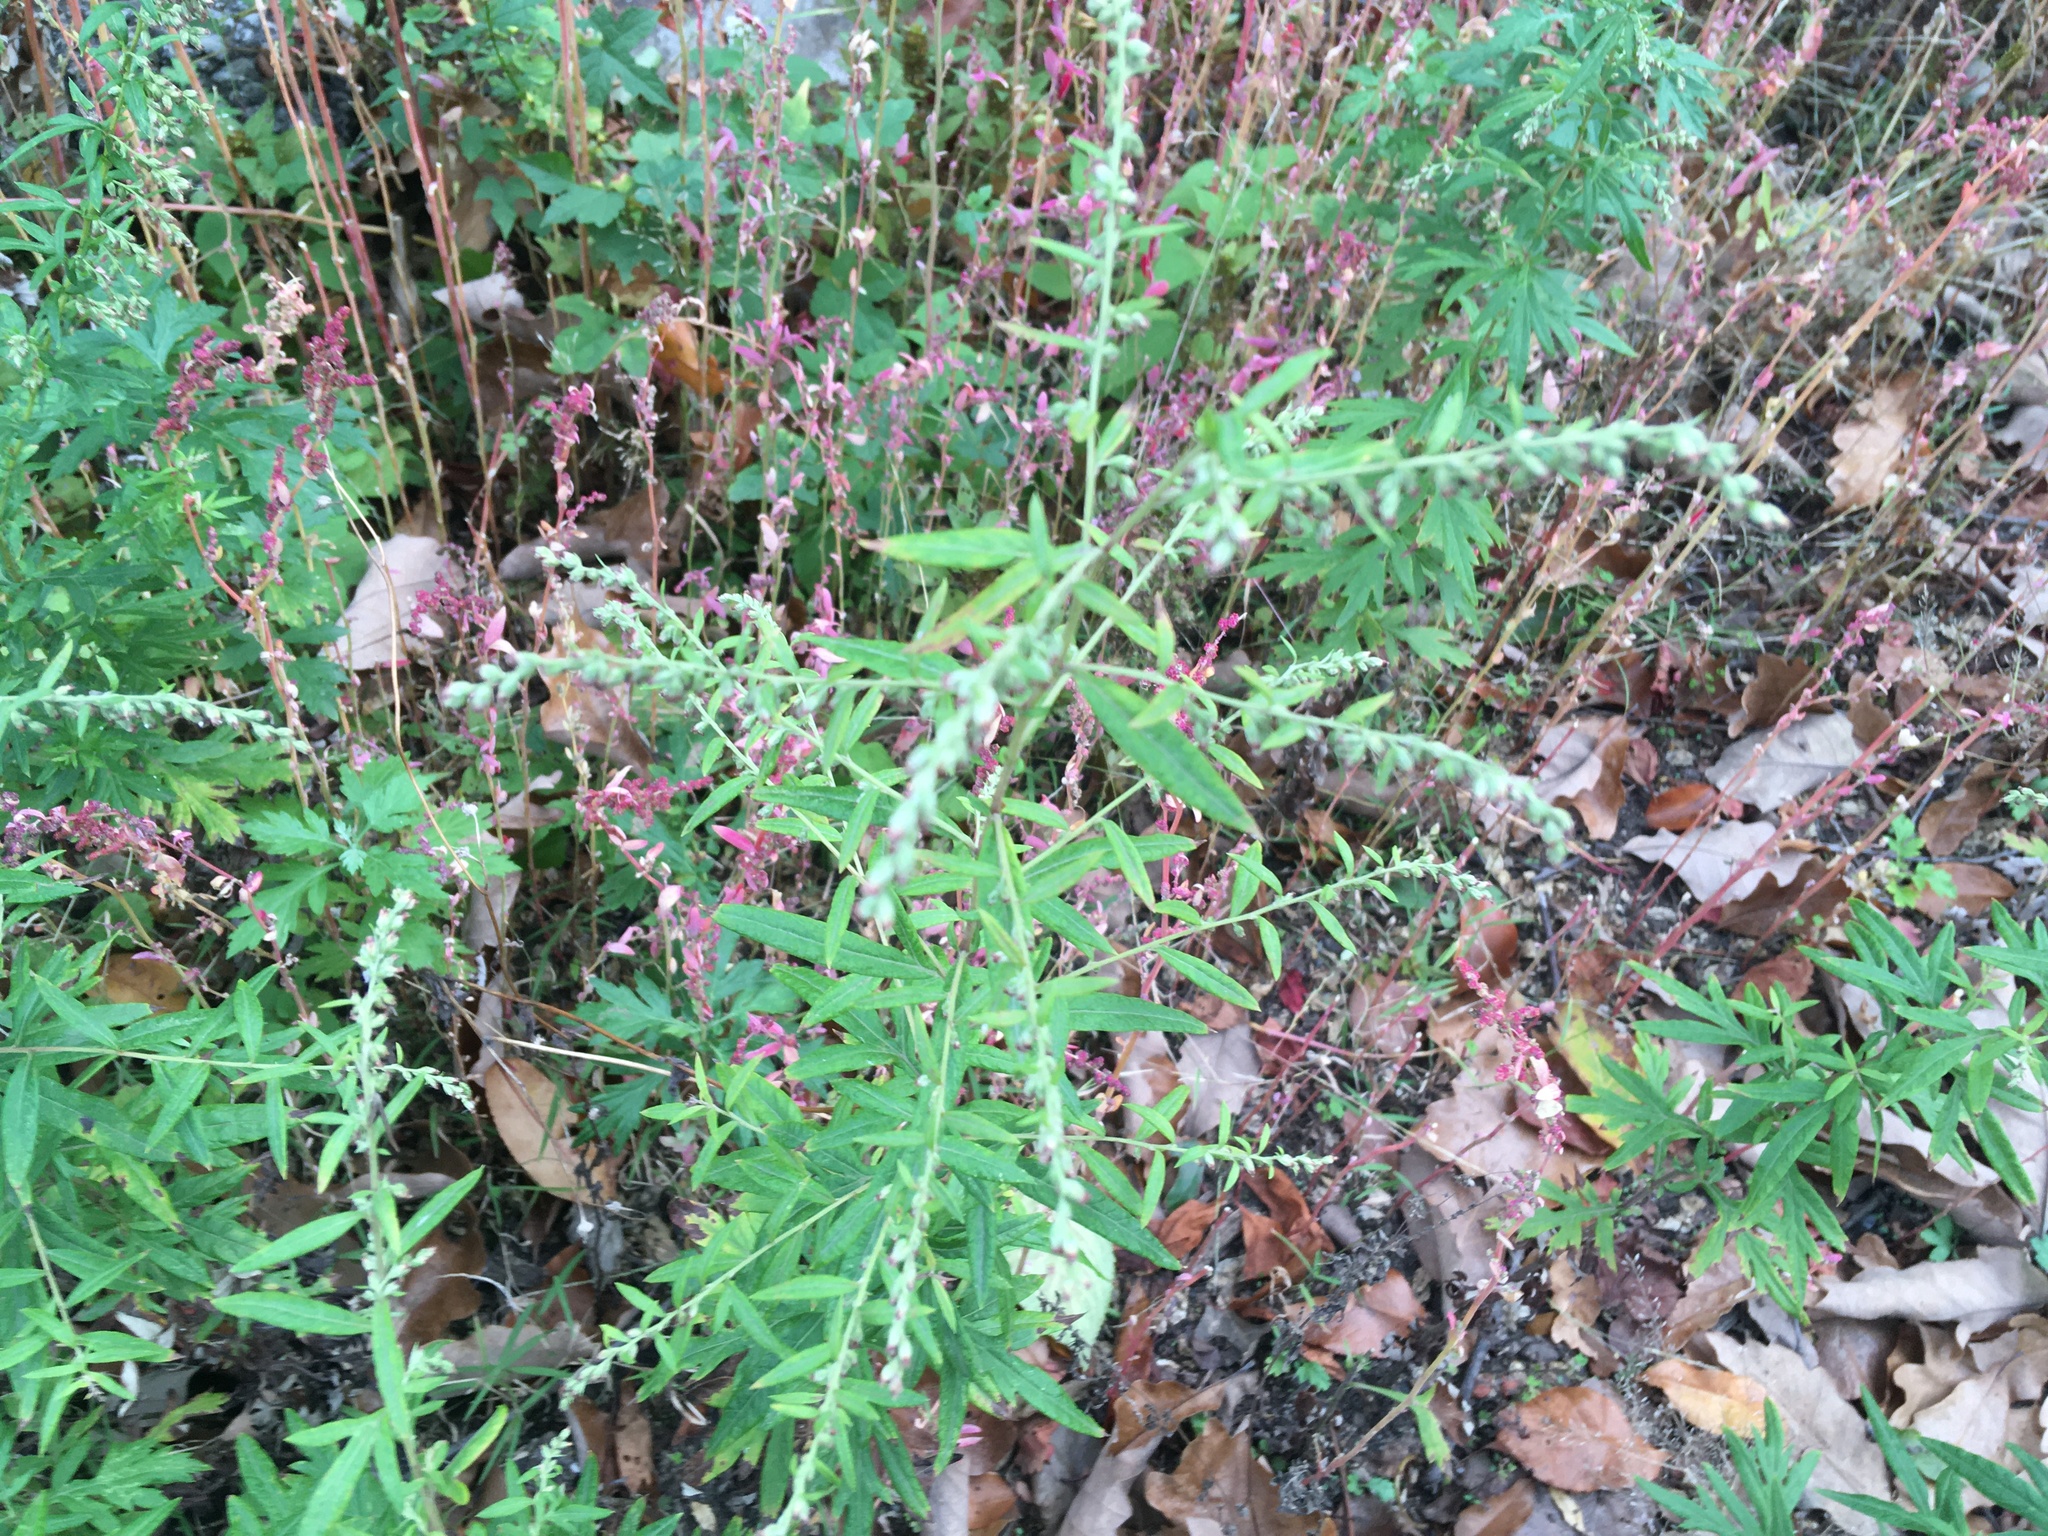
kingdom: Plantae
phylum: Tracheophyta
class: Magnoliopsida
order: Asterales
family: Asteraceae
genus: Artemisia
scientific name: Artemisia vulgaris
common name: Mugwort
